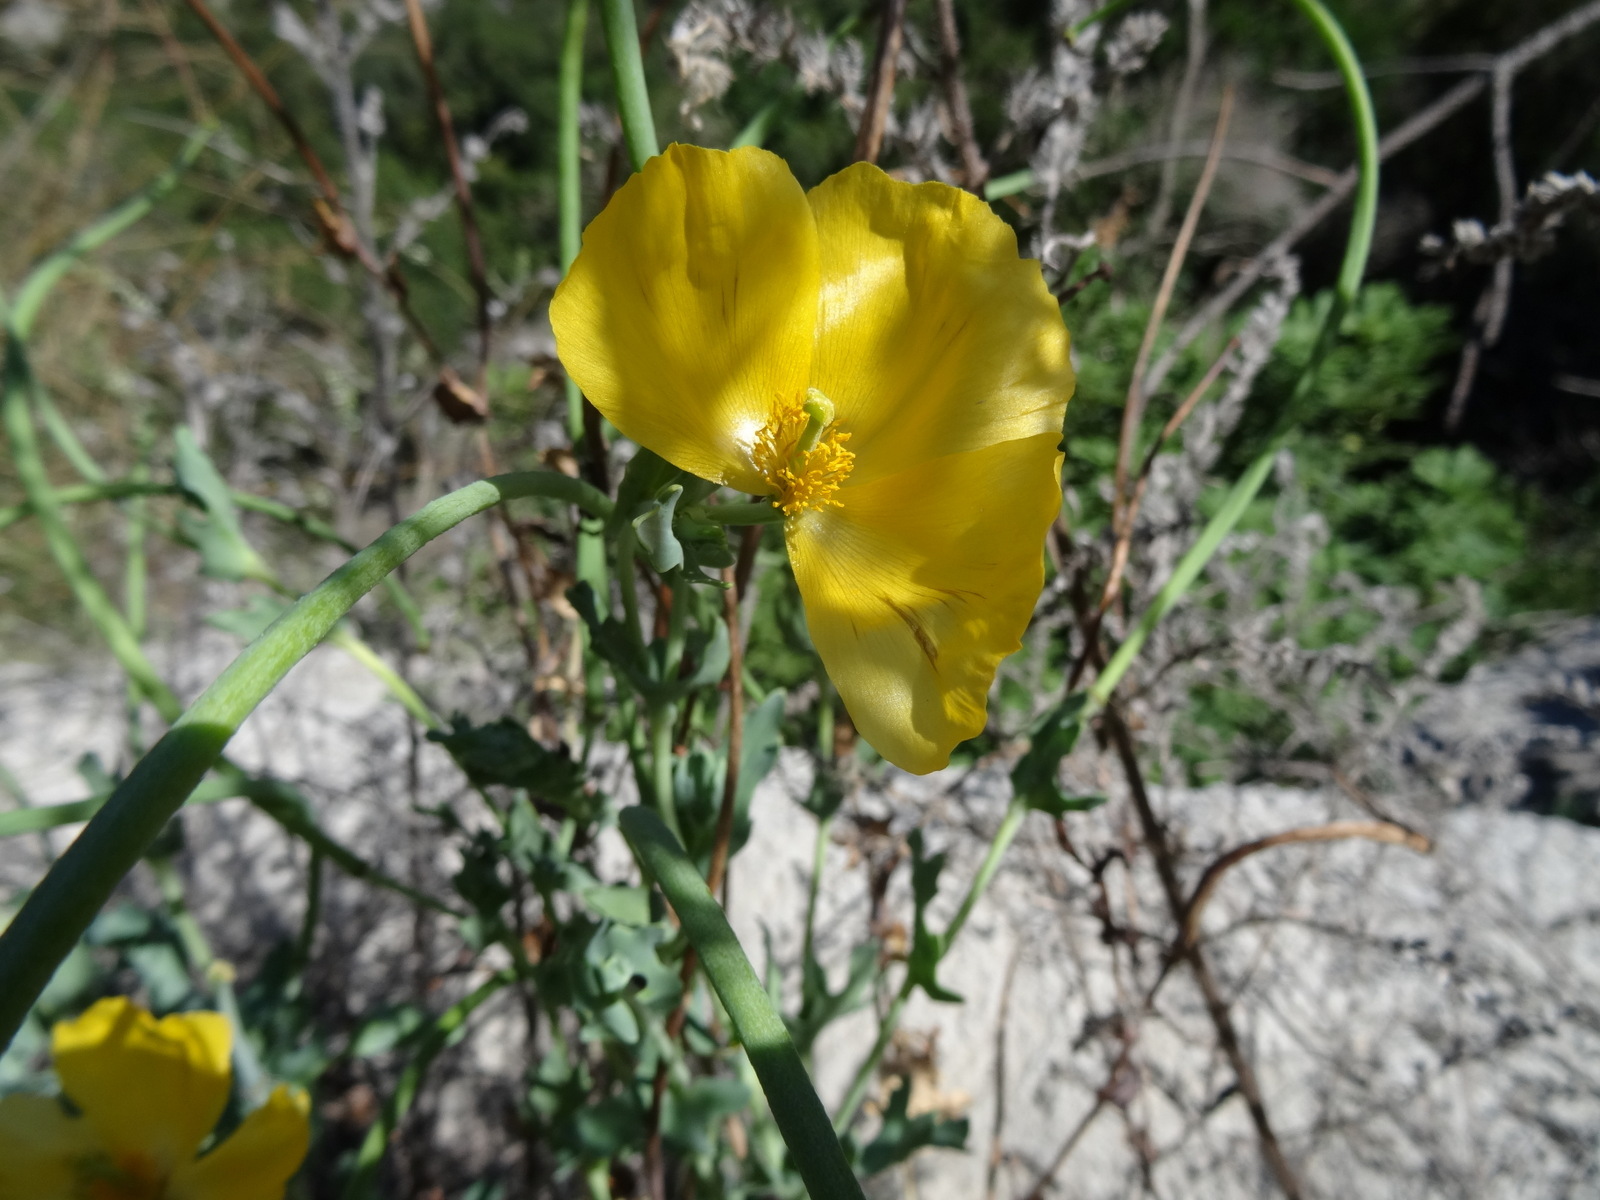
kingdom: Plantae
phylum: Tracheophyta
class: Magnoliopsida
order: Ranunculales
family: Papaveraceae
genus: Glaucium
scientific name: Glaucium flavum
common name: Yellow horned-poppy
